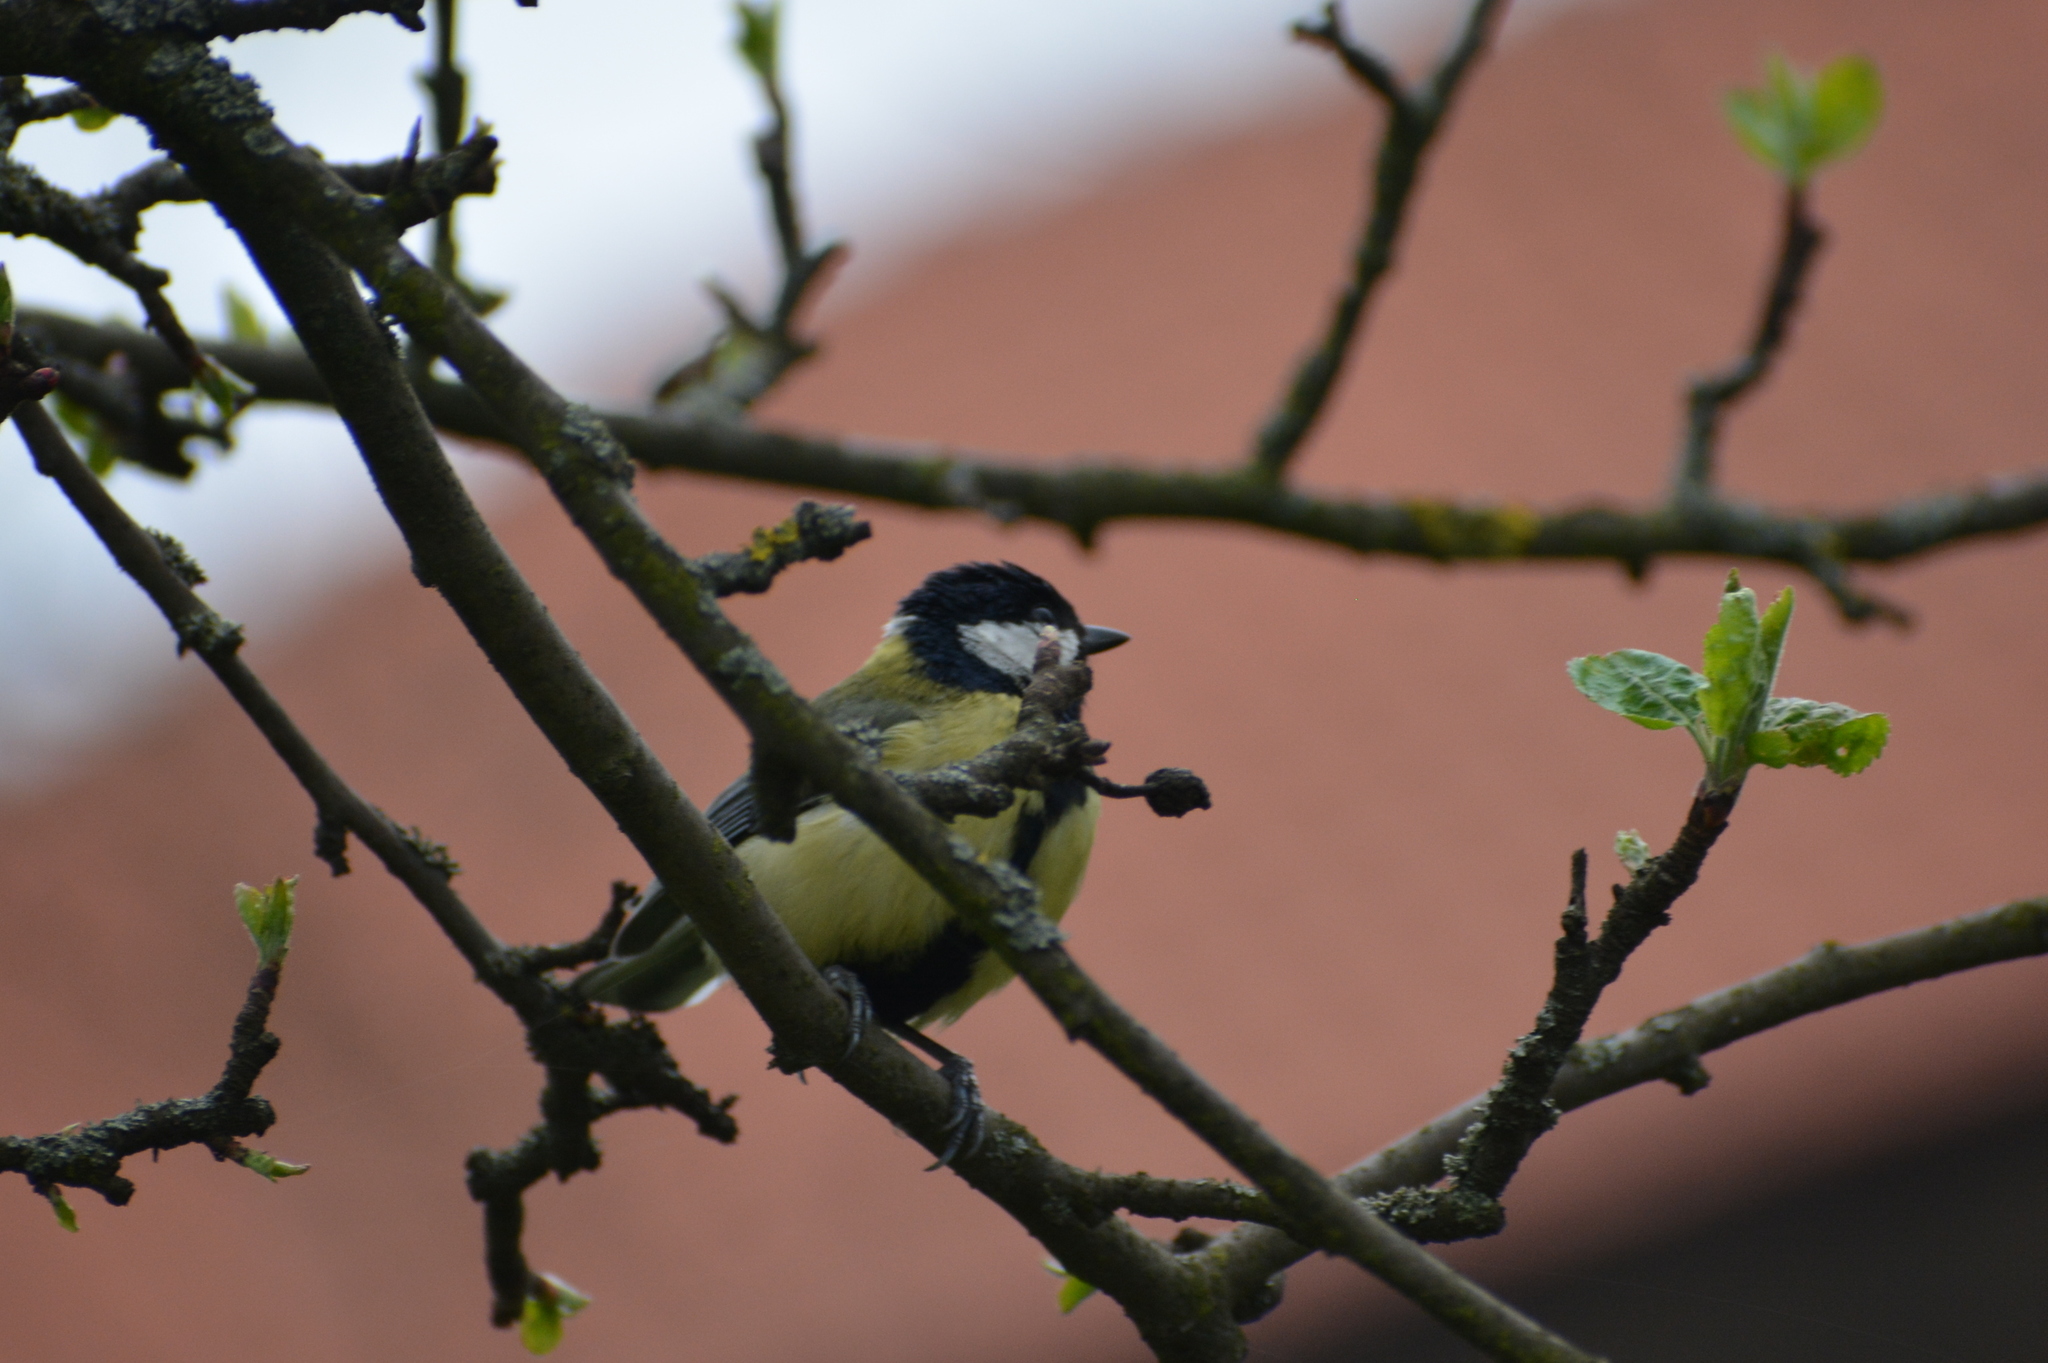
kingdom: Animalia
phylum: Chordata
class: Aves
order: Passeriformes
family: Paridae
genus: Parus
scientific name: Parus major
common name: Great tit
